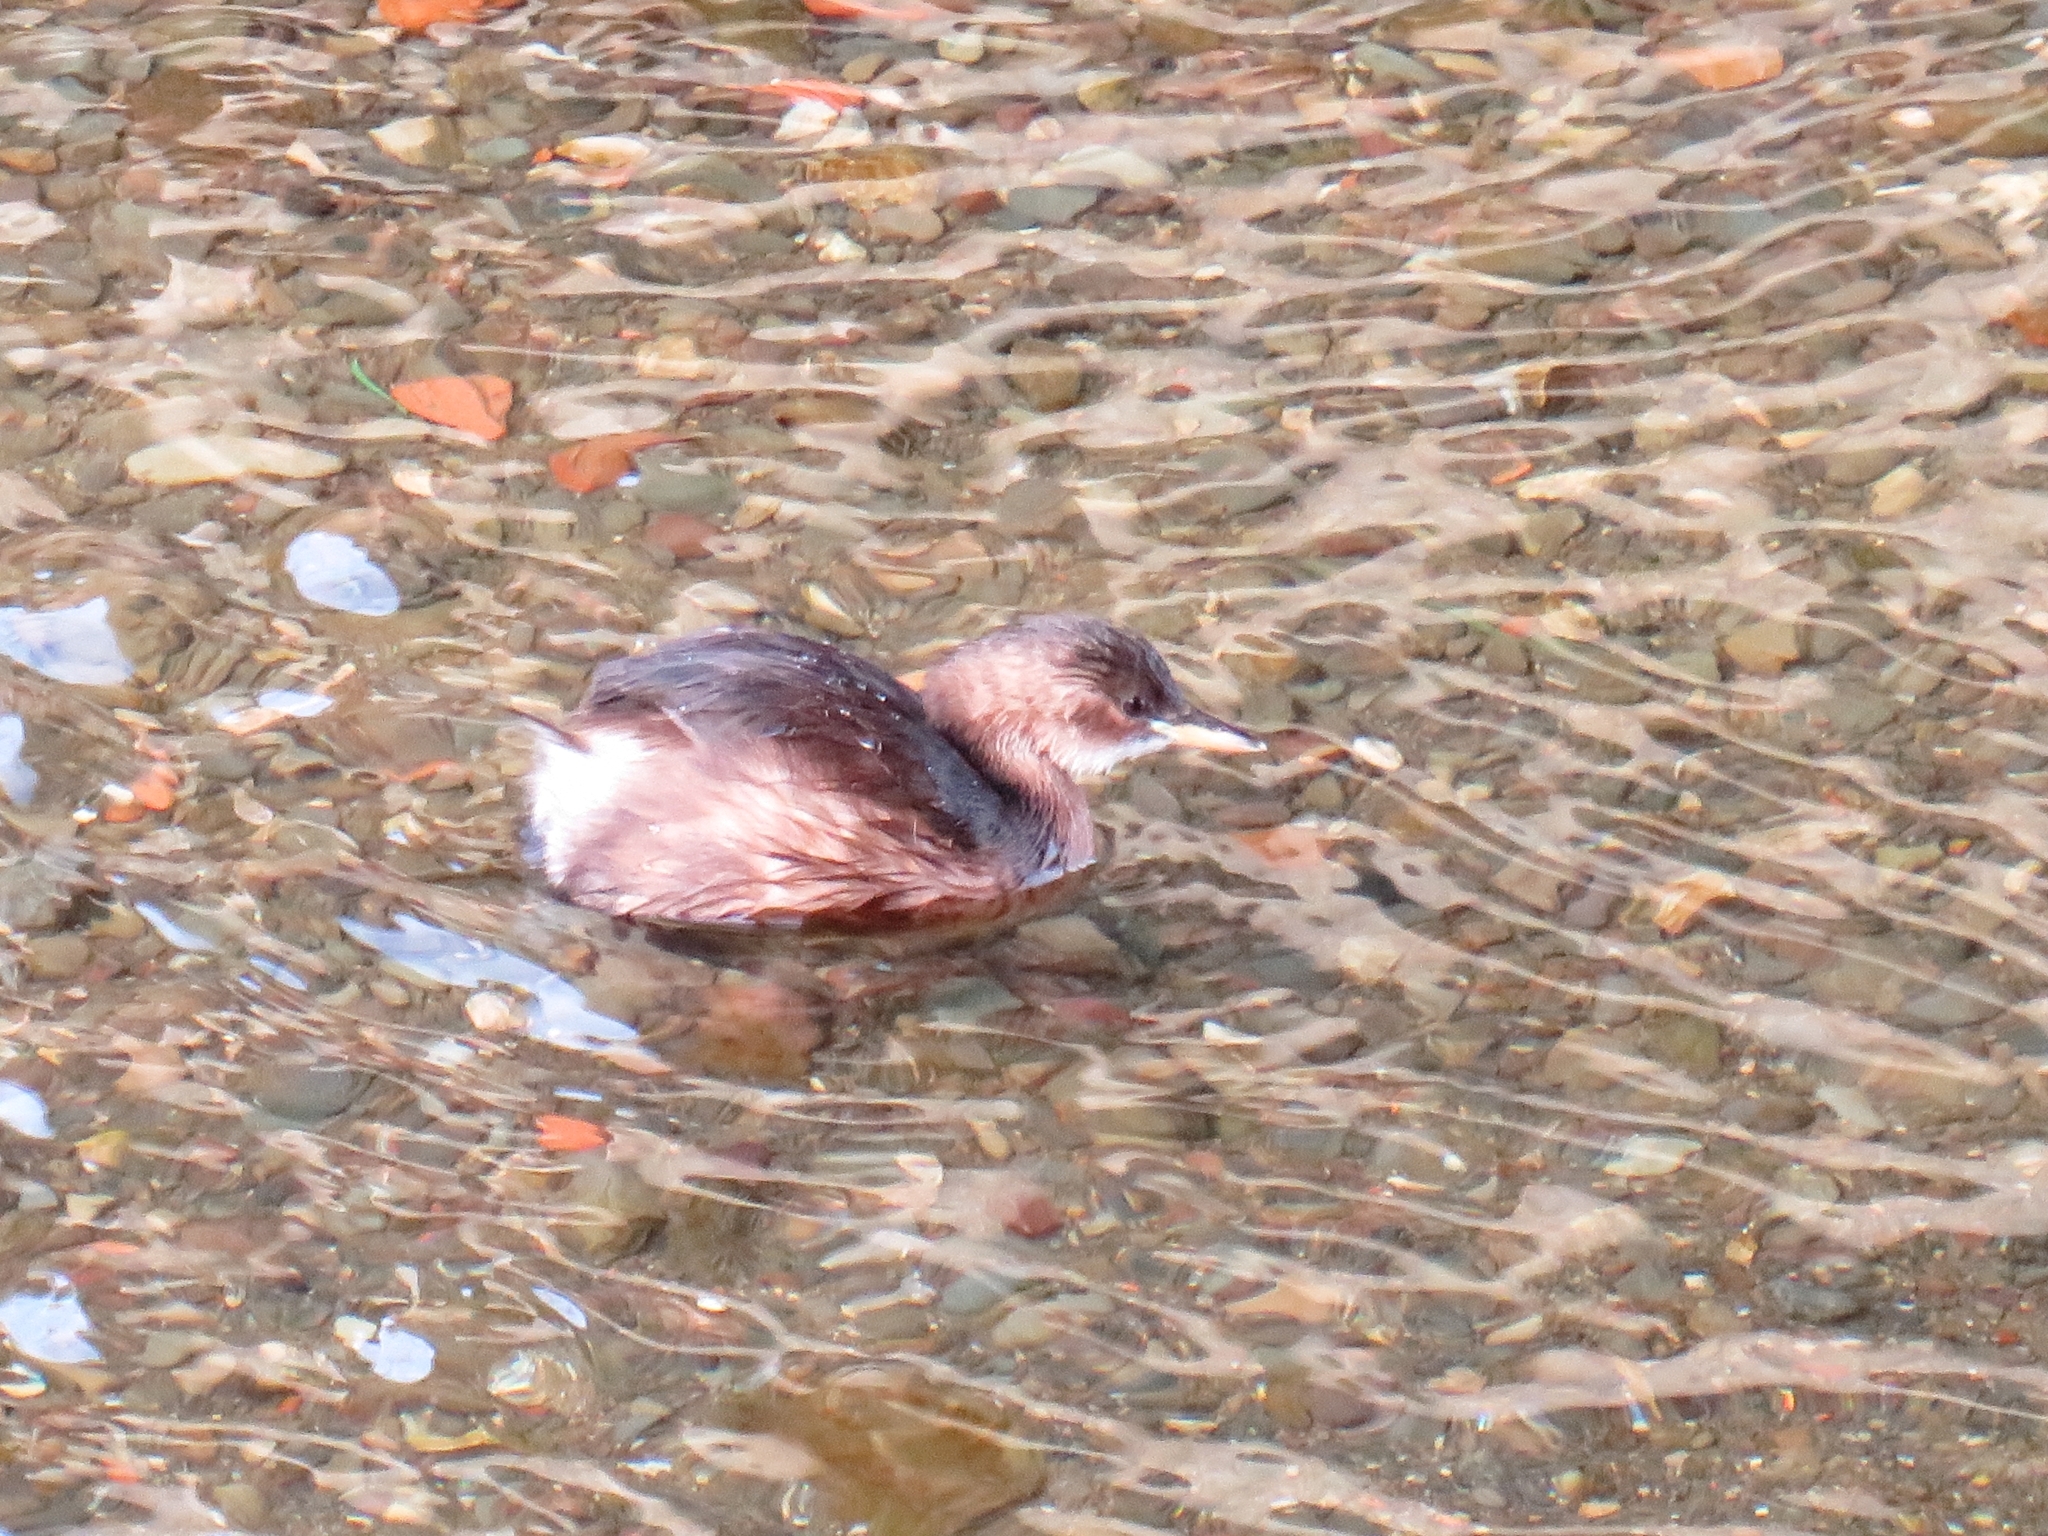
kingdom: Animalia
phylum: Chordata
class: Aves
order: Podicipediformes
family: Podicipedidae
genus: Tachybaptus
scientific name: Tachybaptus ruficollis
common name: Little grebe
